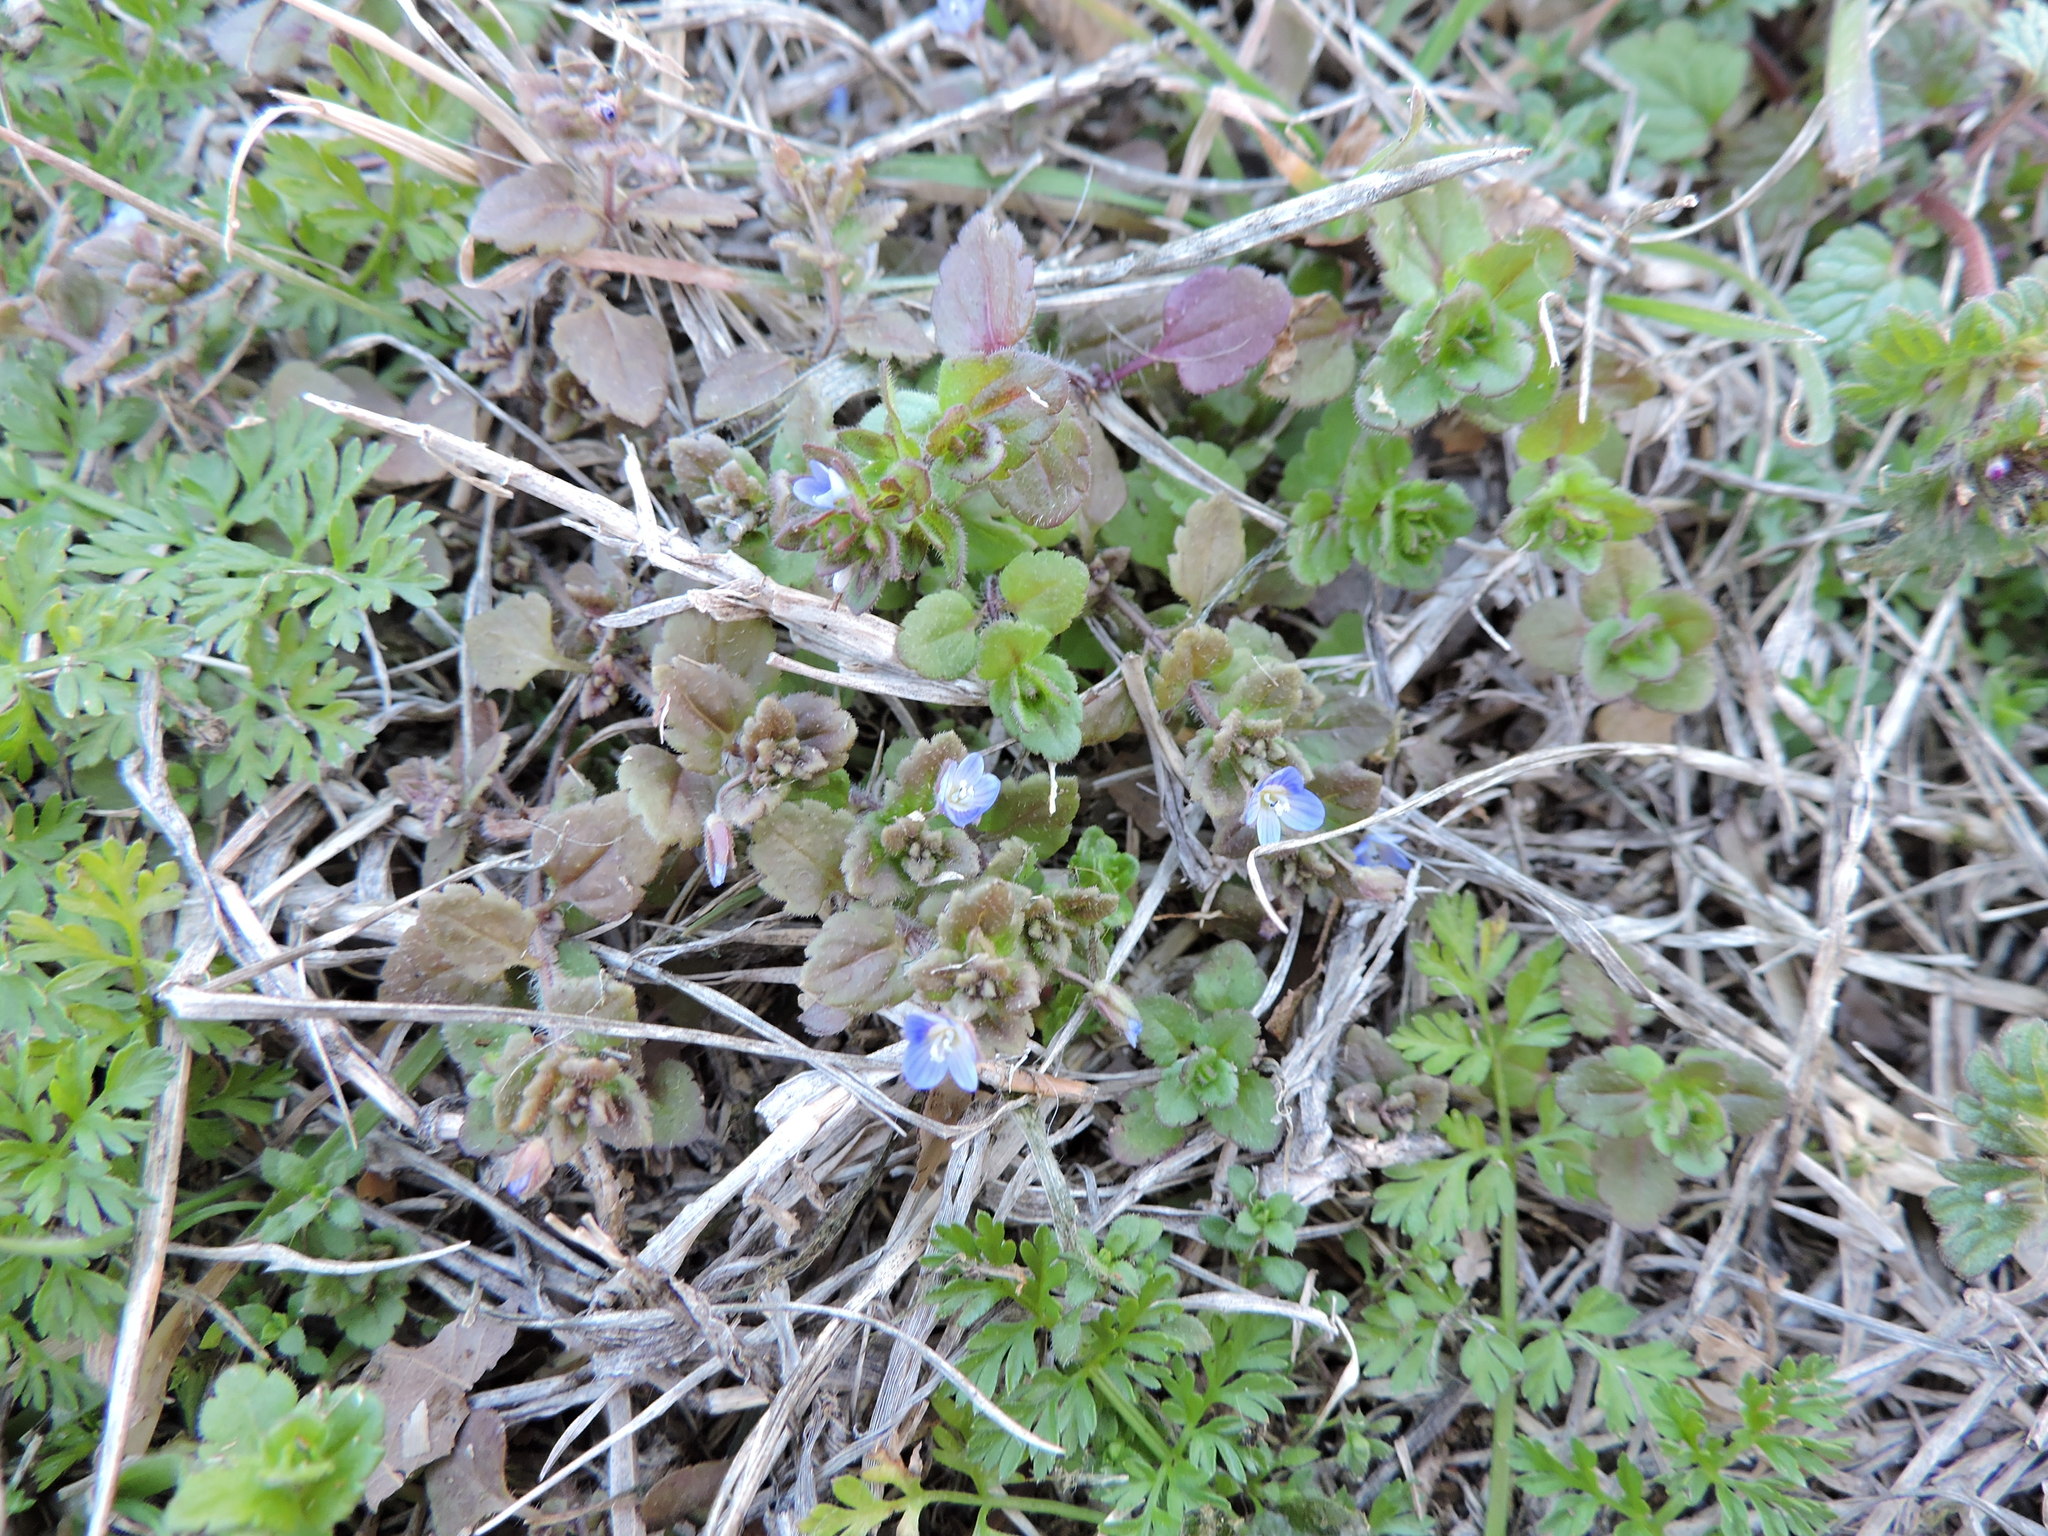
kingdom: Plantae
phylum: Tracheophyta
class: Magnoliopsida
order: Lamiales
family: Plantaginaceae
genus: Veronica
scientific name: Veronica polita
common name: Grey field-speedwell
